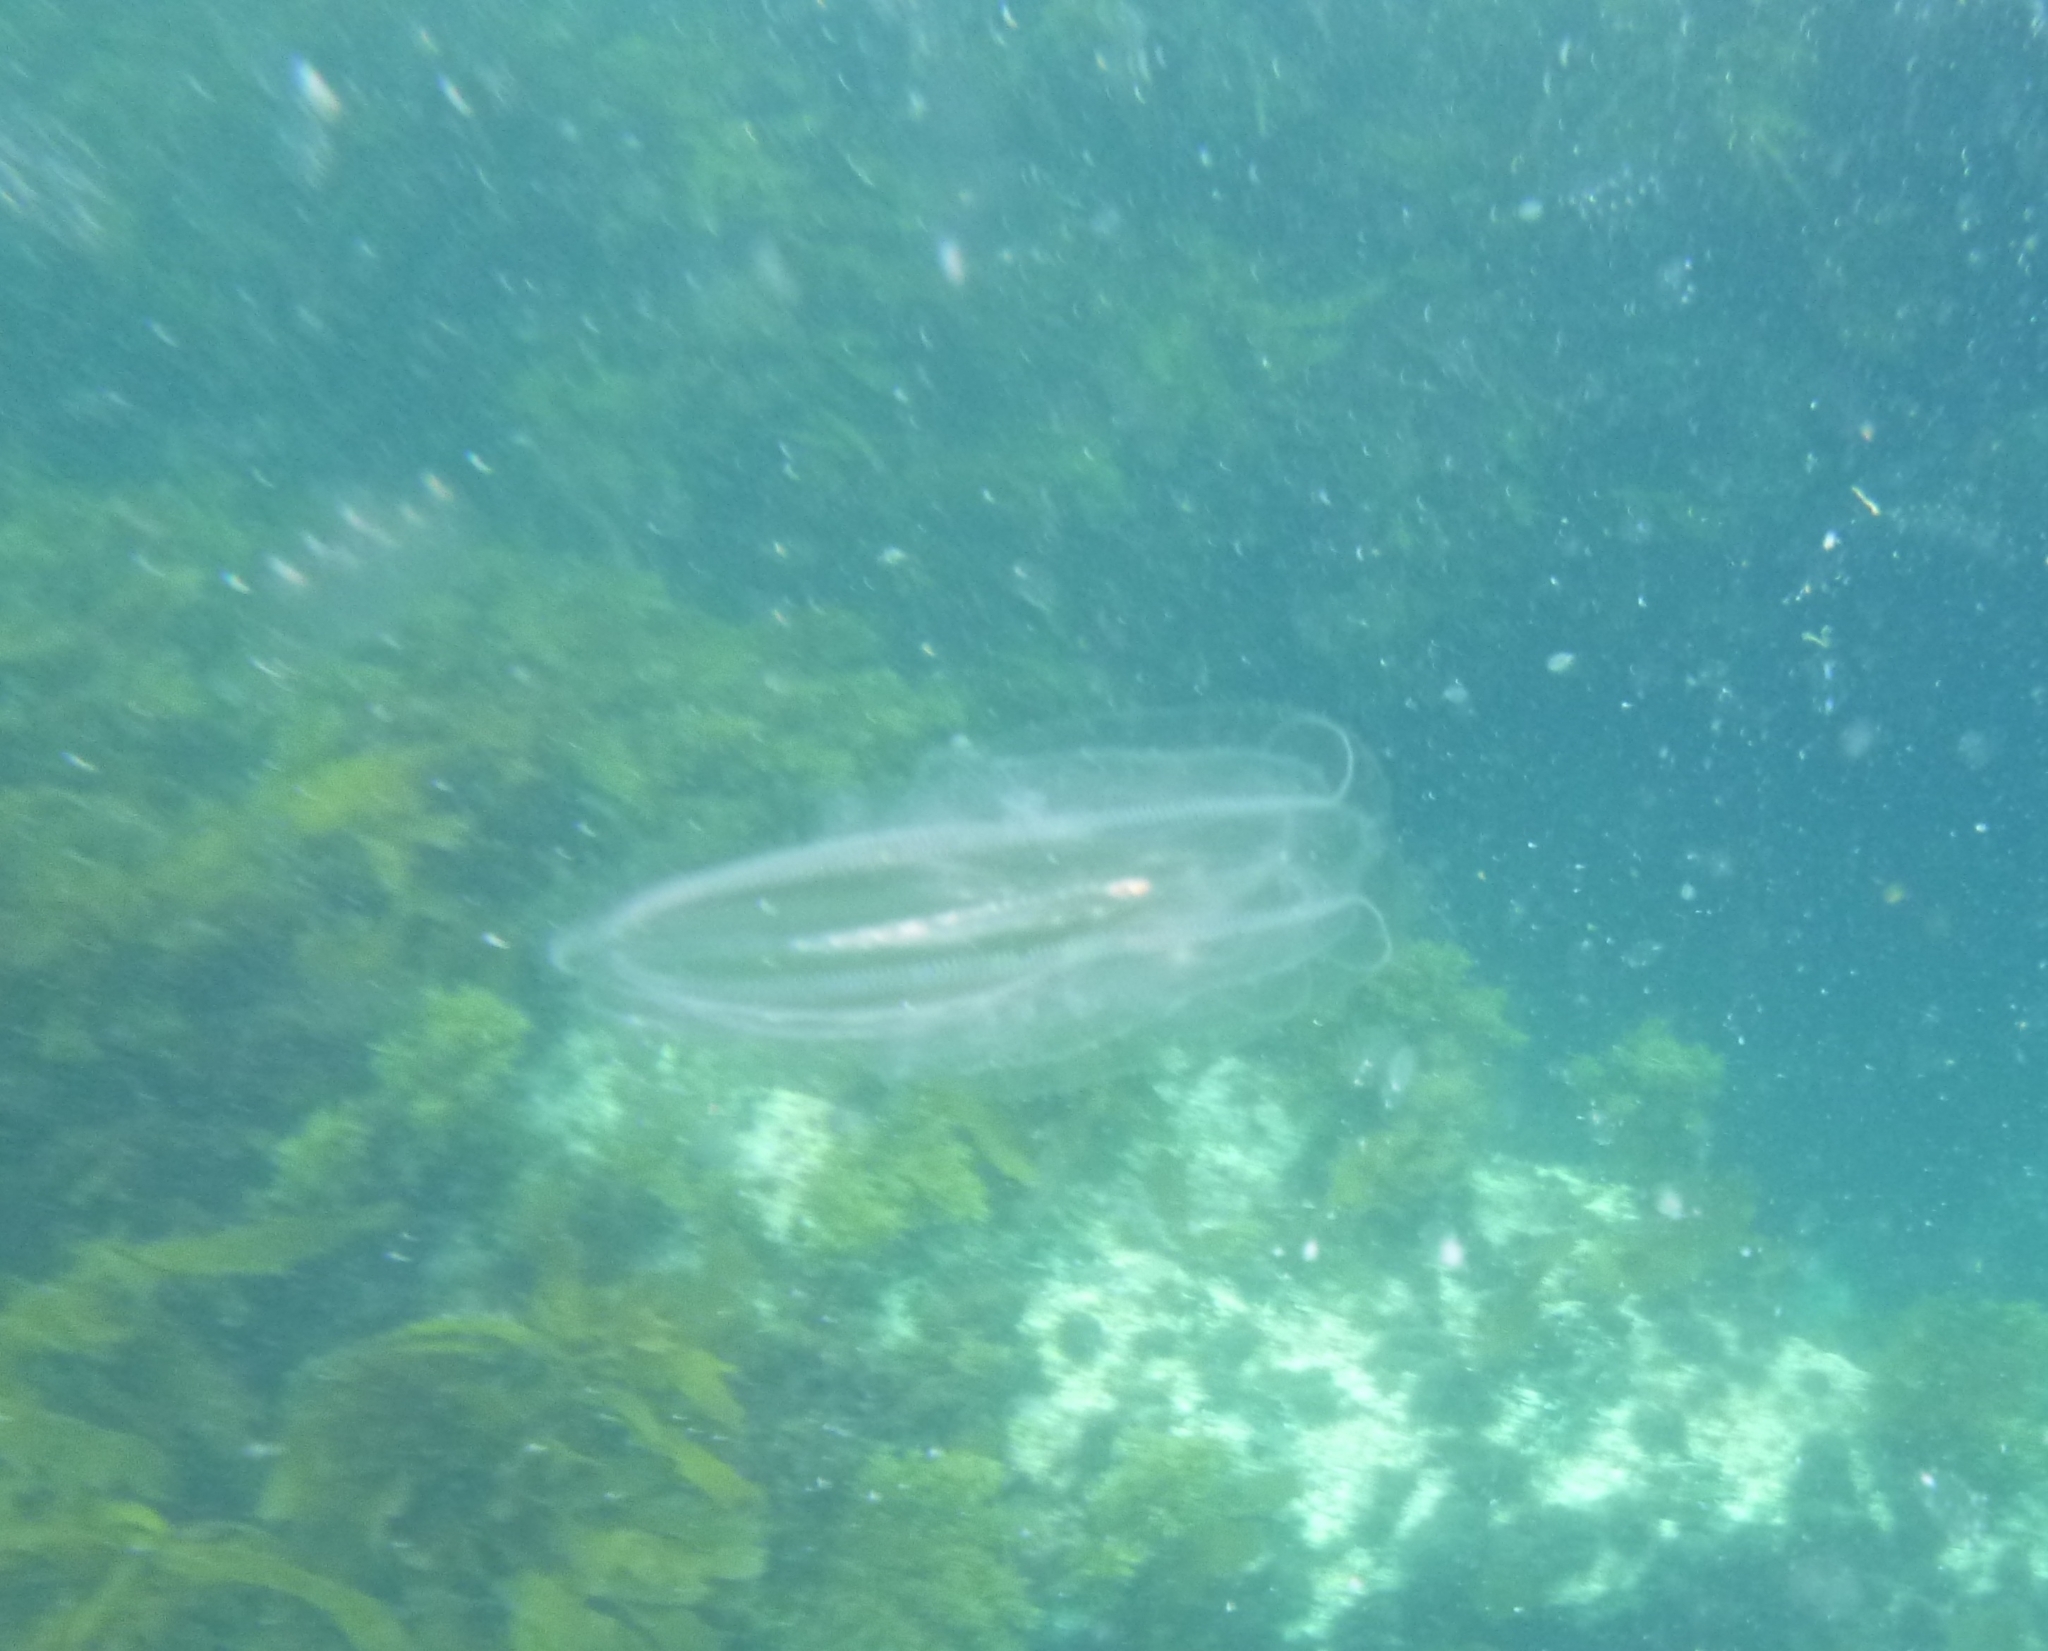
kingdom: Animalia
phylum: Ctenophora
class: Tentaculata
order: Lobata
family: Leucotheidae
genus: Leucothea
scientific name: Leucothea multicornis
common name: Vitreous lobate comb-jelly
